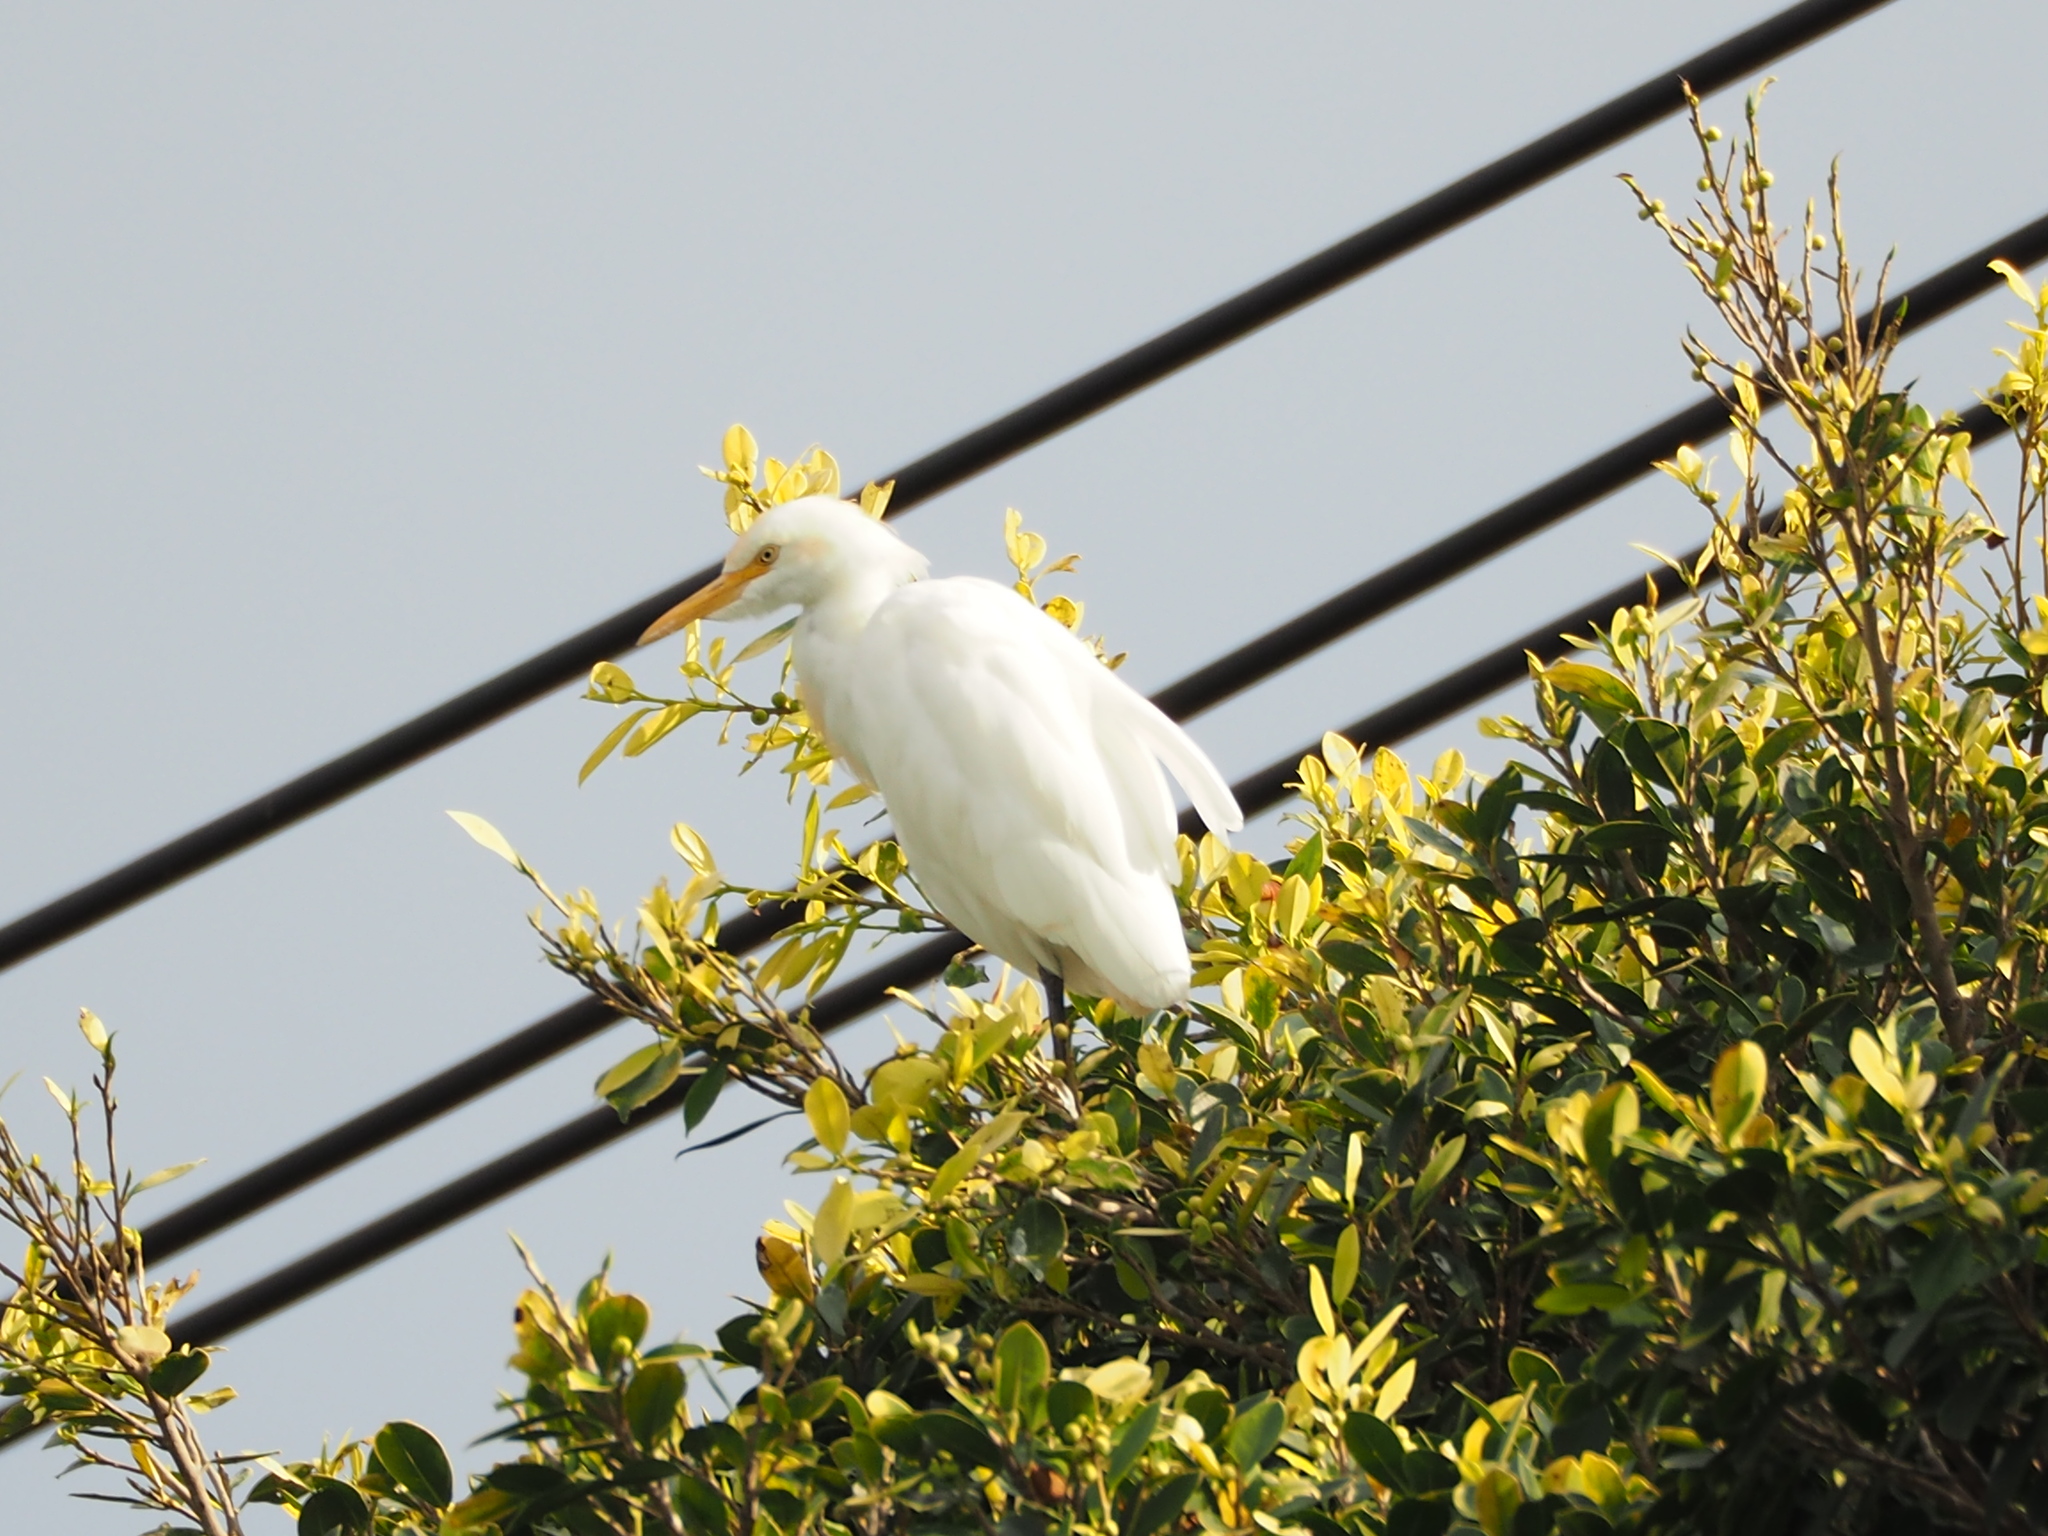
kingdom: Animalia
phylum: Chordata
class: Aves
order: Pelecaniformes
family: Ardeidae
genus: Bubulcus
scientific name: Bubulcus coromandus
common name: Eastern cattle egret
